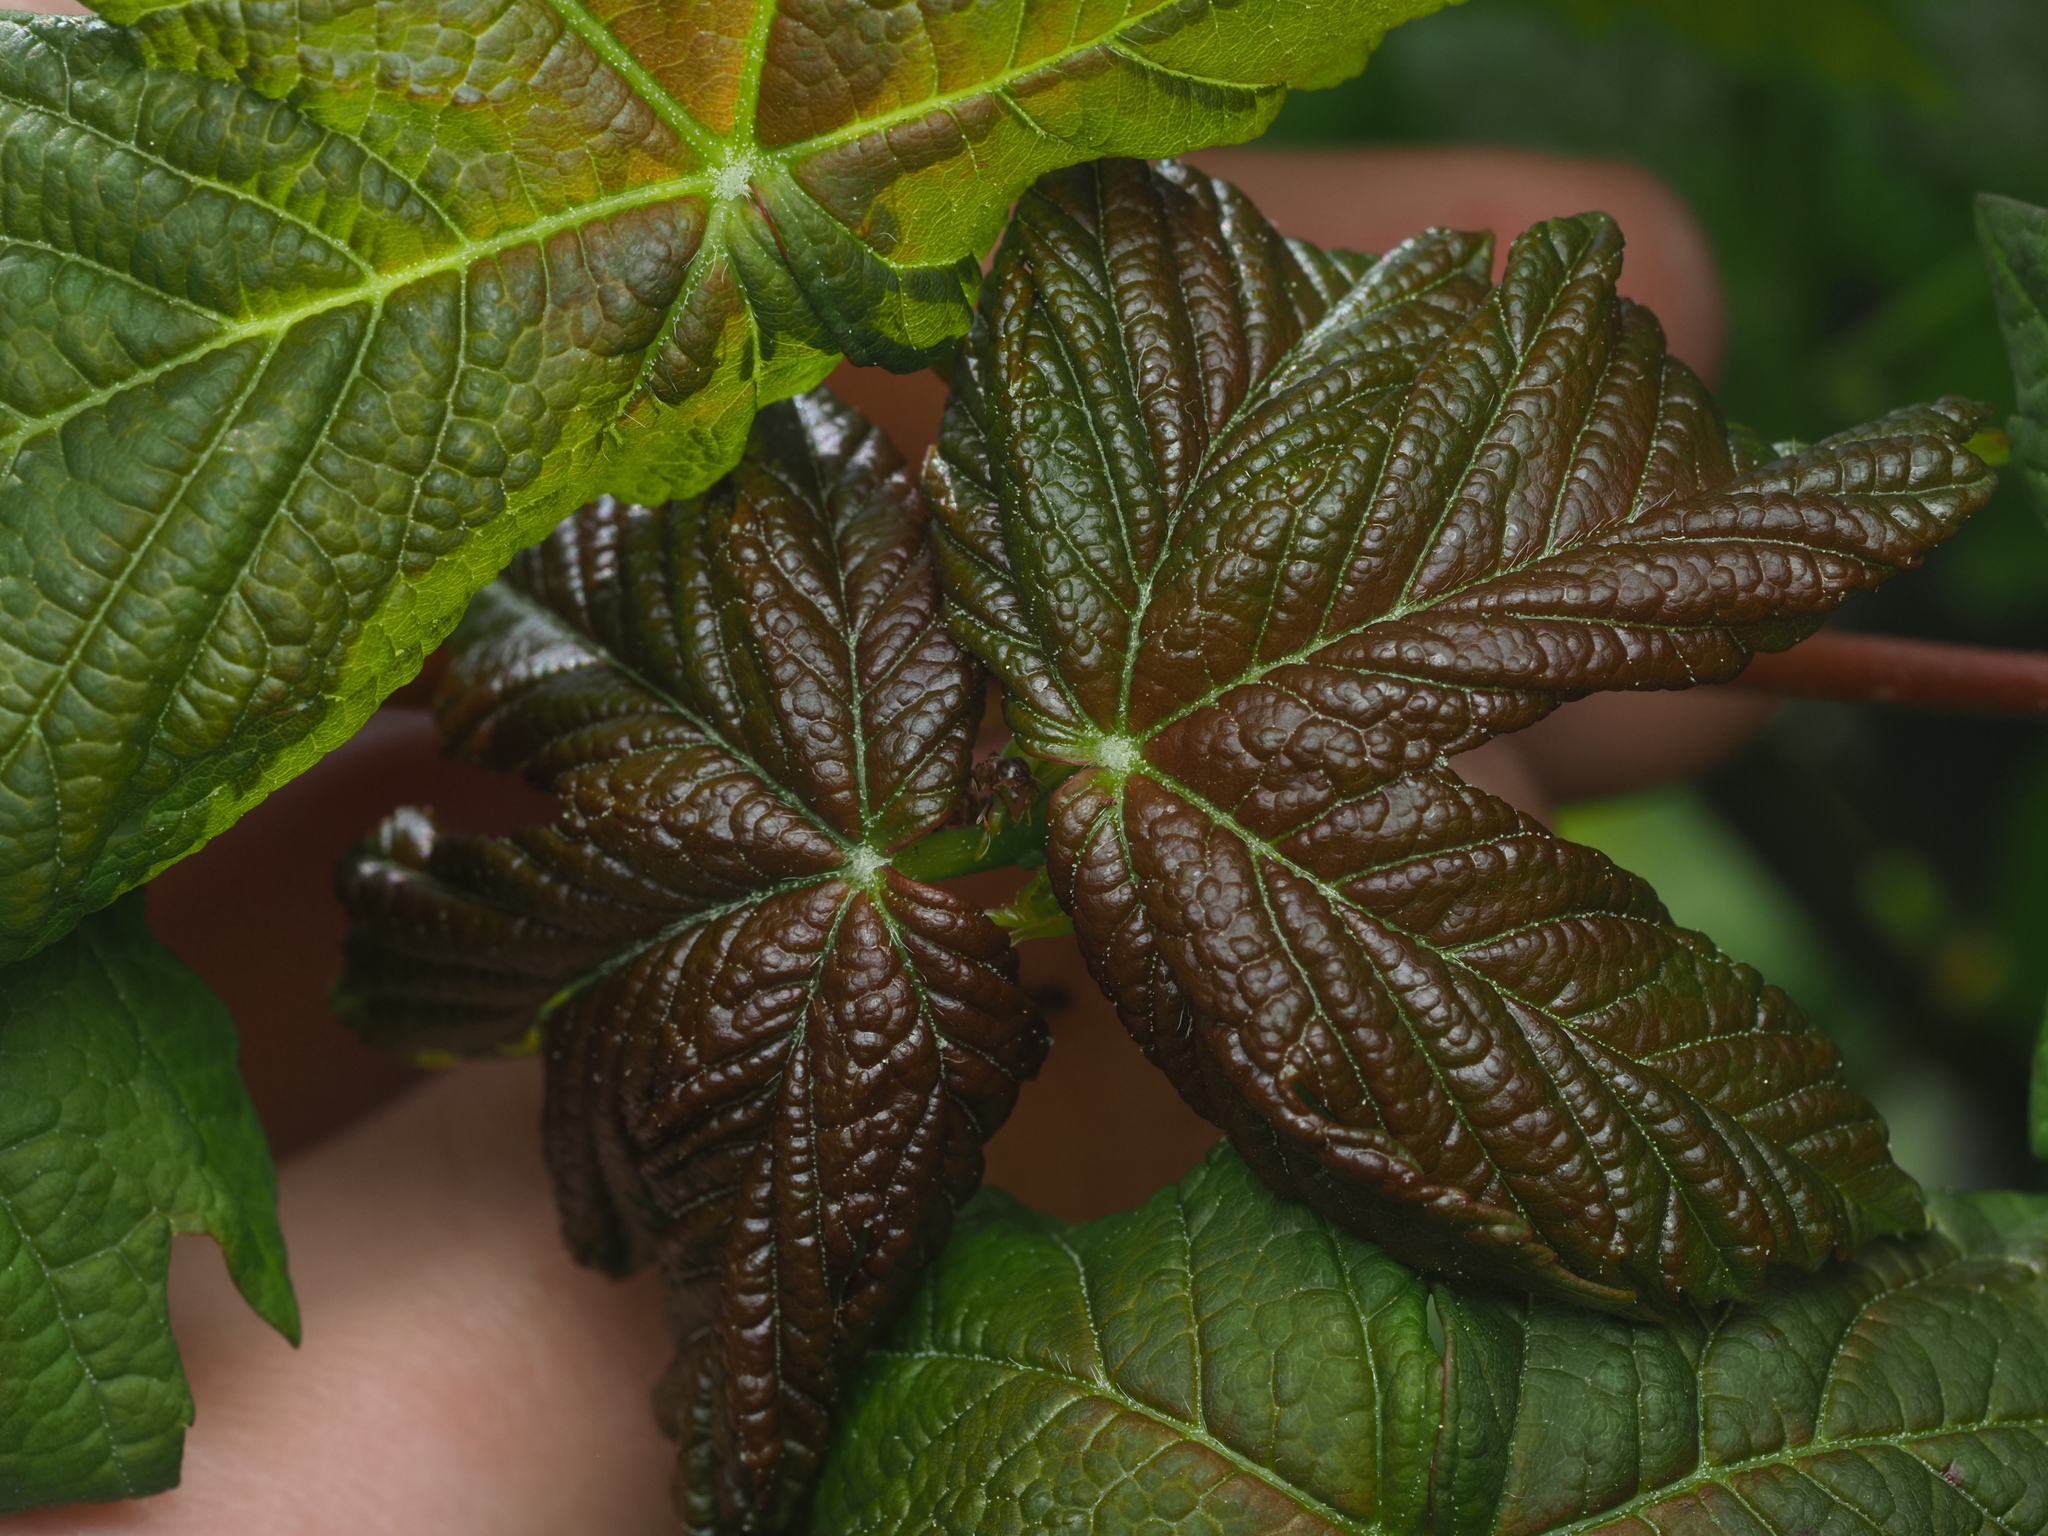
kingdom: Plantae
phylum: Tracheophyta
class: Magnoliopsida
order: Sapindales
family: Sapindaceae
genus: Acer
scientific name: Acer pseudoplatanus
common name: Sycamore
